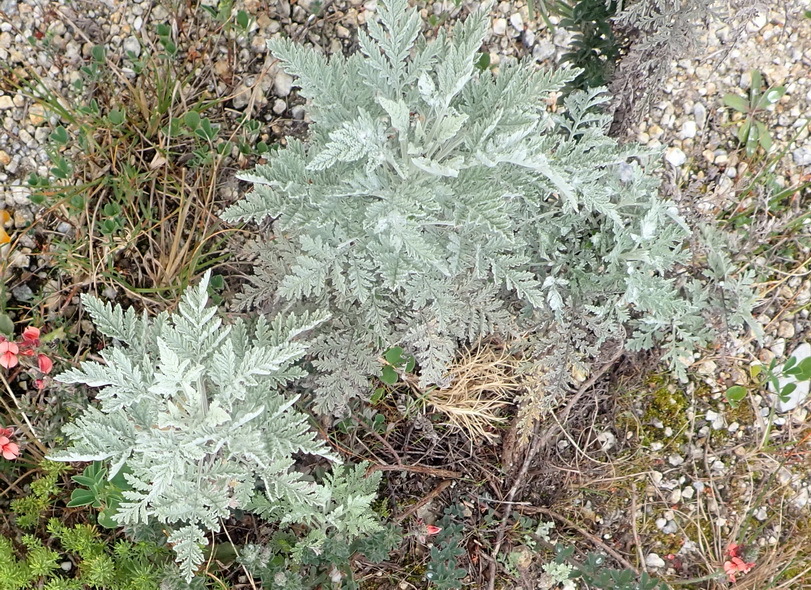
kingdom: Plantae
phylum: Tracheophyta
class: Magnoliopsida
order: Asterales
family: Asteraceae
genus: Artemisia
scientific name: Artemisia afra
